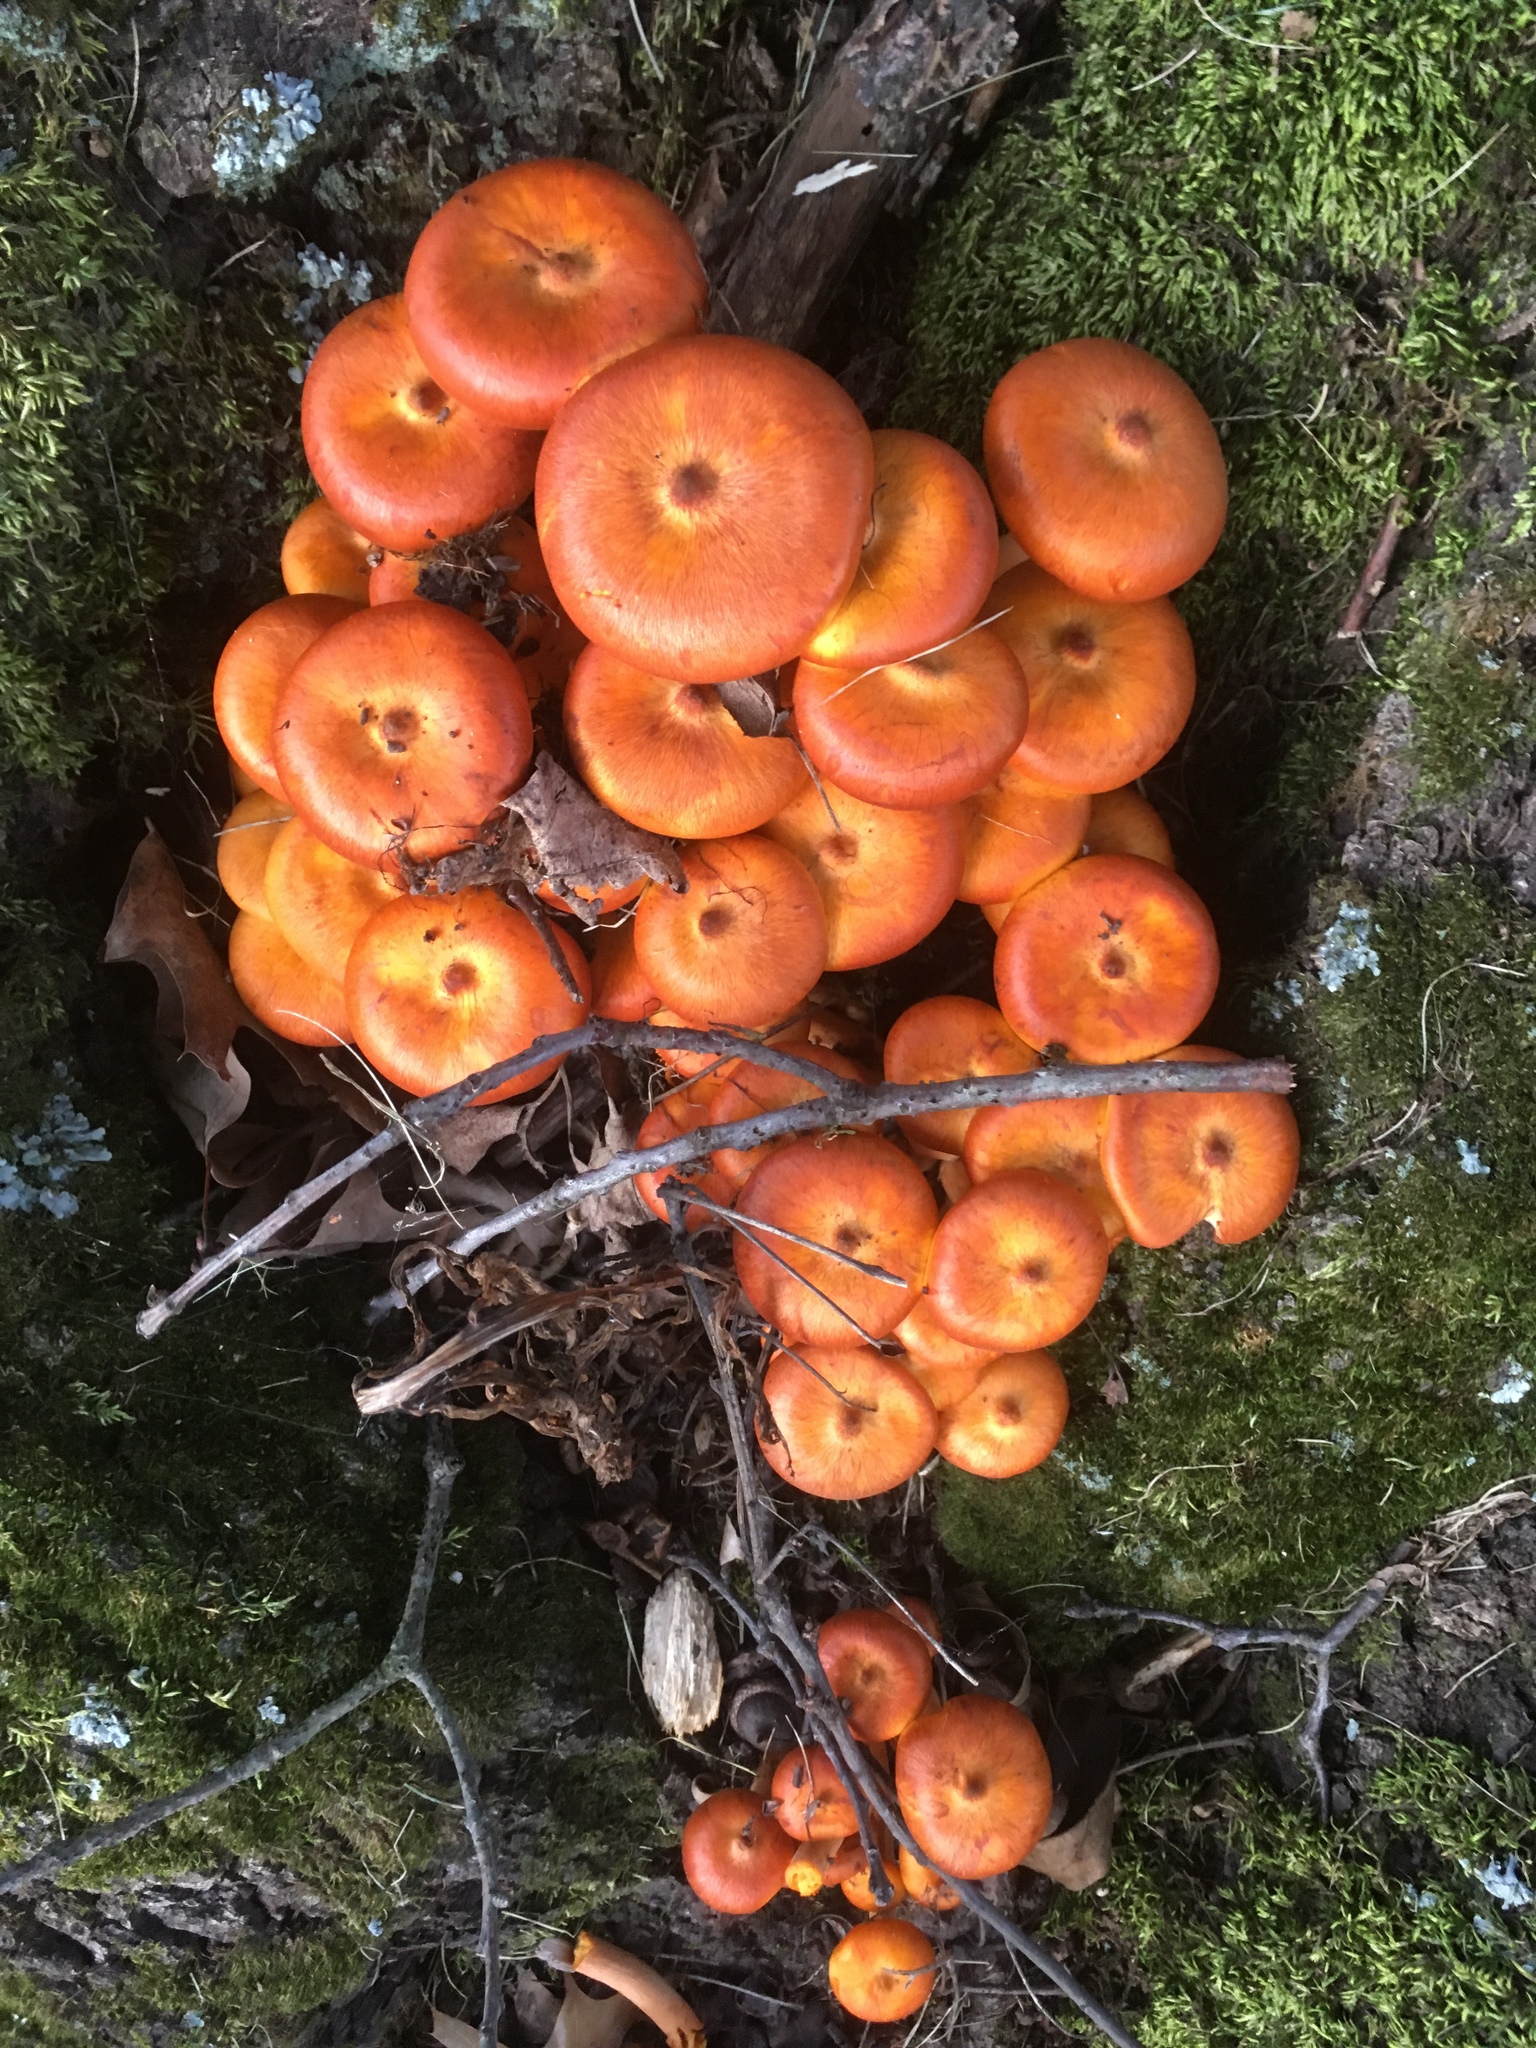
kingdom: Fungi
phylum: Basidiomycota
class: Agaricomycetes
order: Agaricales
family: Omphalotaceae
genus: Omphalotus
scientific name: Omphalotus illudens
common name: Jack o lantern
